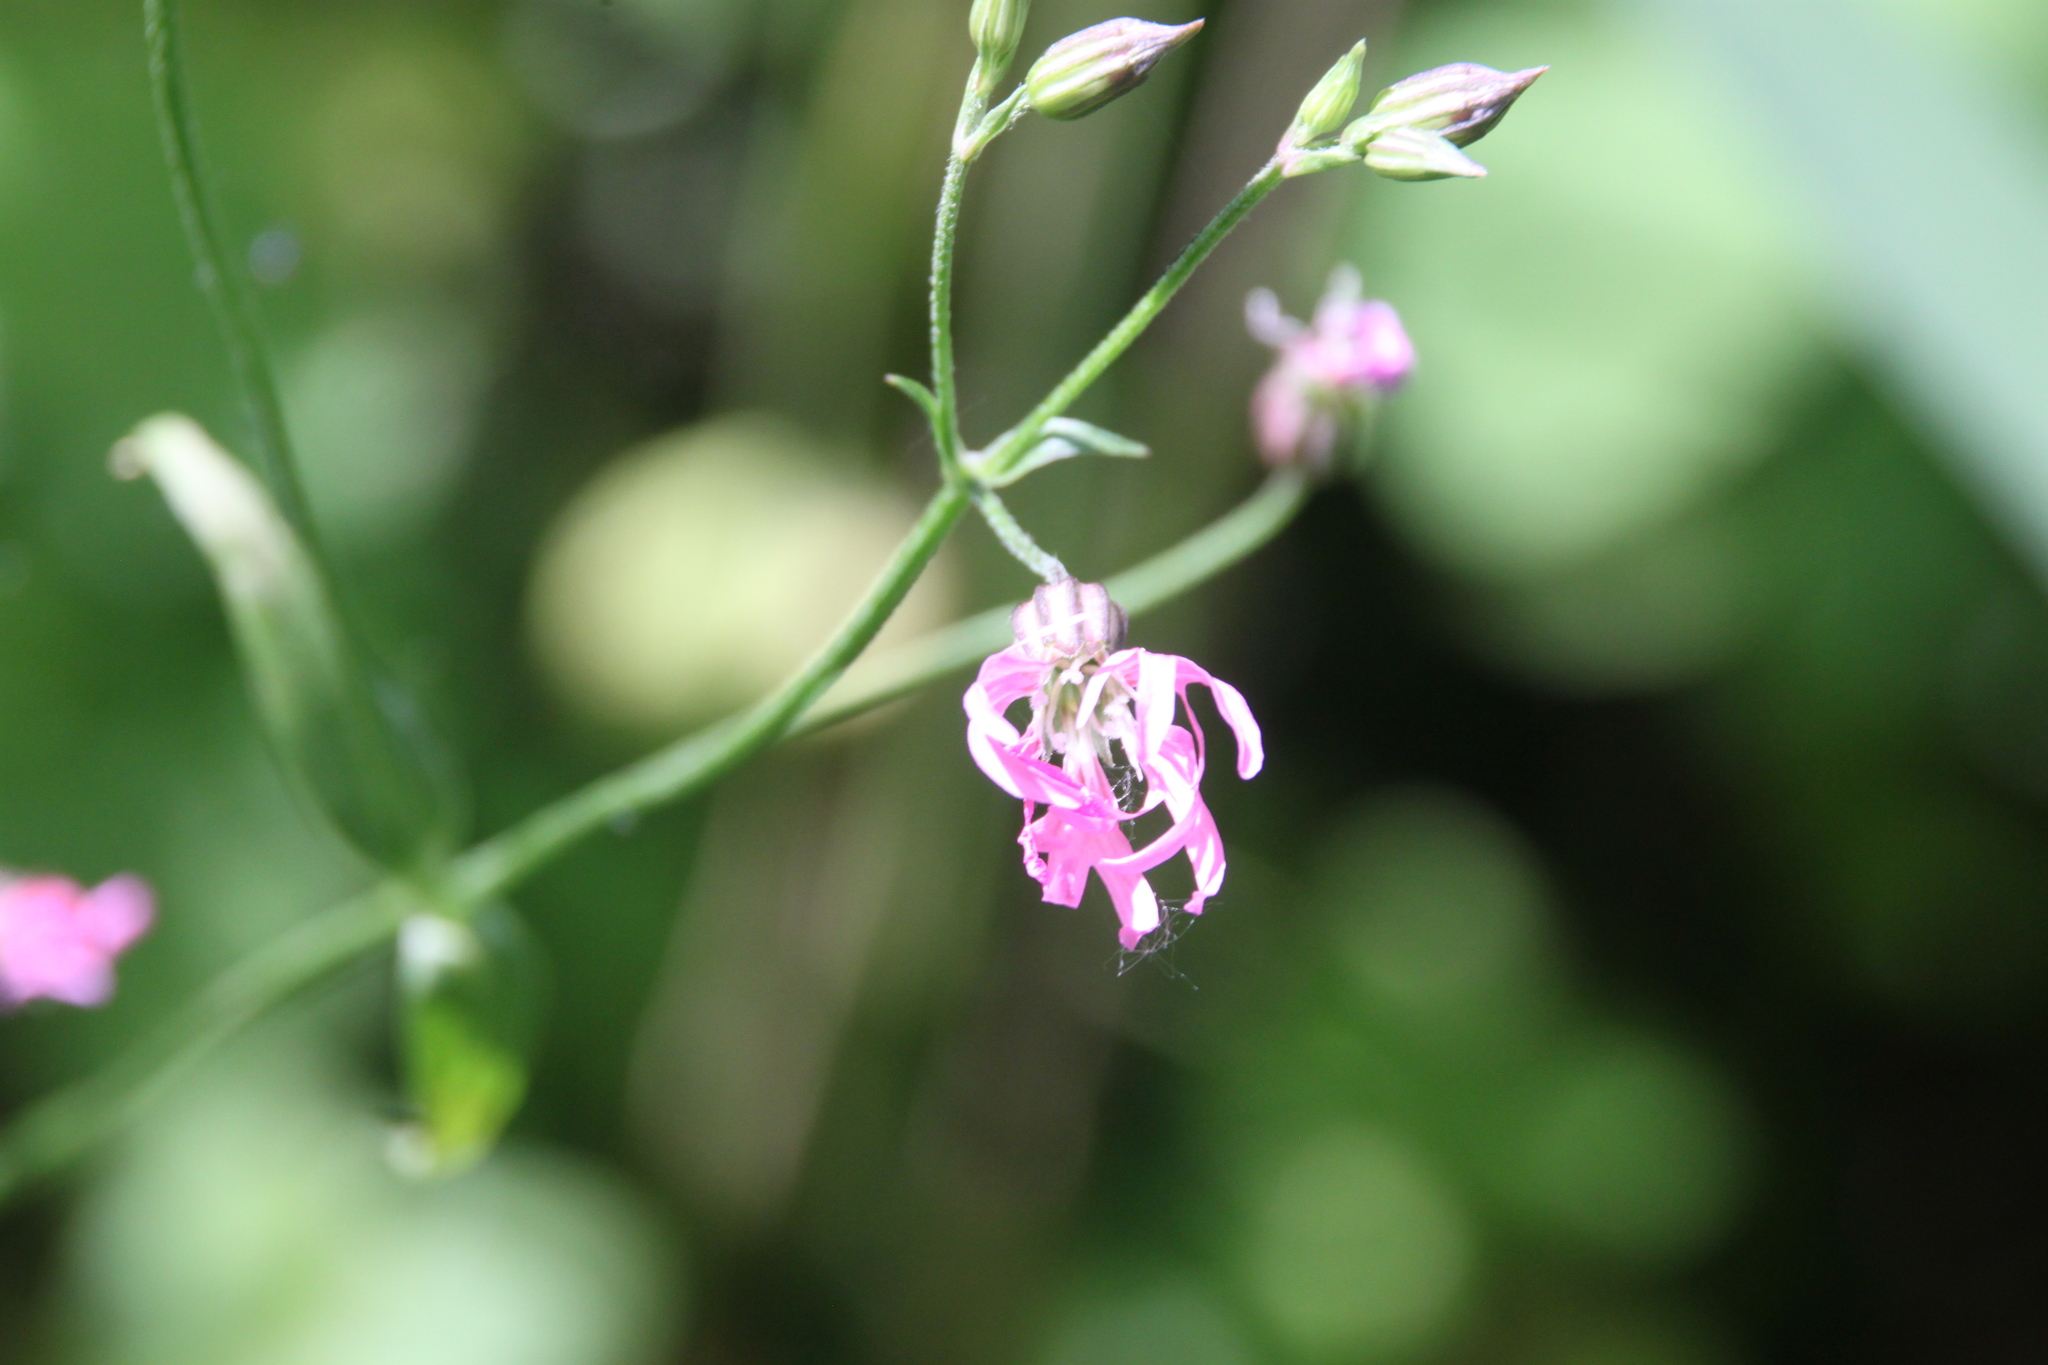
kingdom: Plantae
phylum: Tracheophyta
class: Magnoliopsida
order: Caryophyllales
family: Caryophyllaceae
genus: Silene
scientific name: Silene flos-cuculi
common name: Ragged-robin
